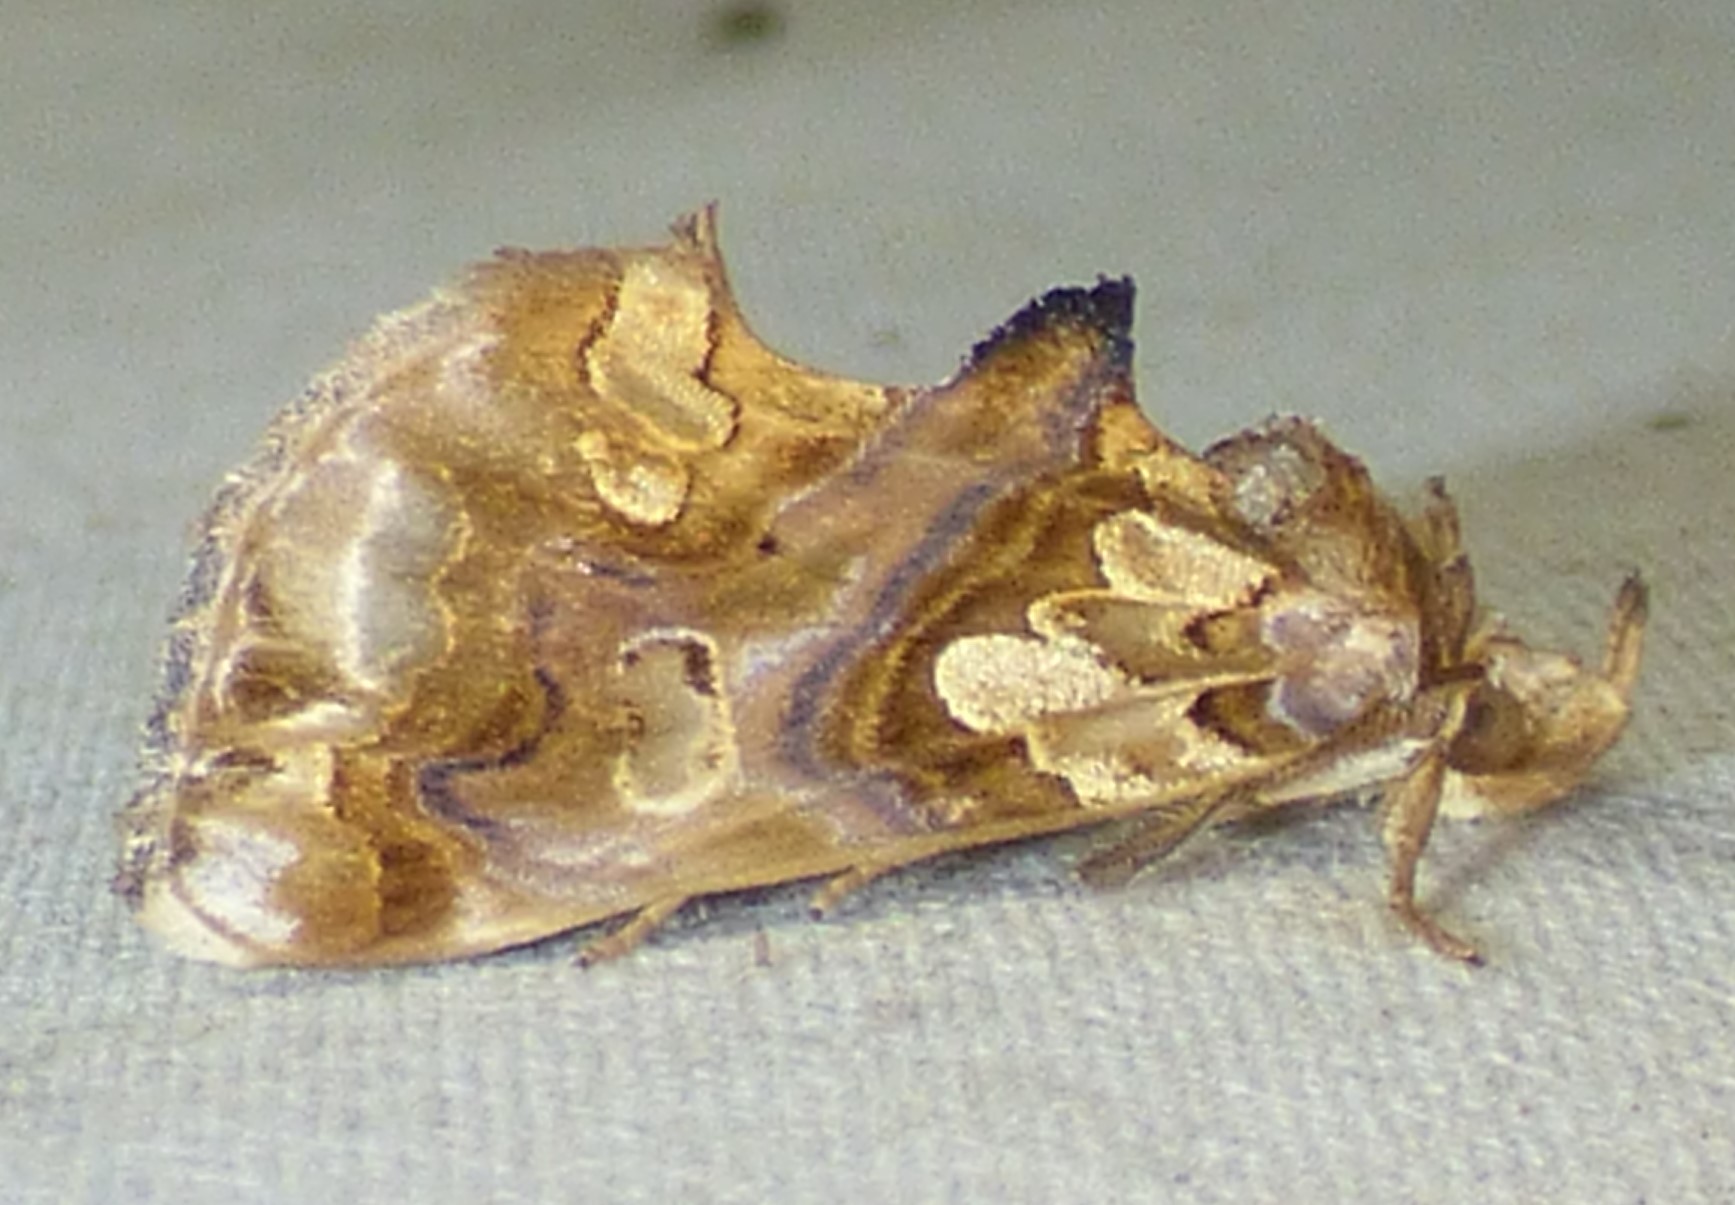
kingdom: Animalia
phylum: Arthropoda
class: Insecta
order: Lepidoptera
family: Erebidae
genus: Plusiodonta
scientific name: Plusiodonta compressipalpis
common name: Moonseed moth
